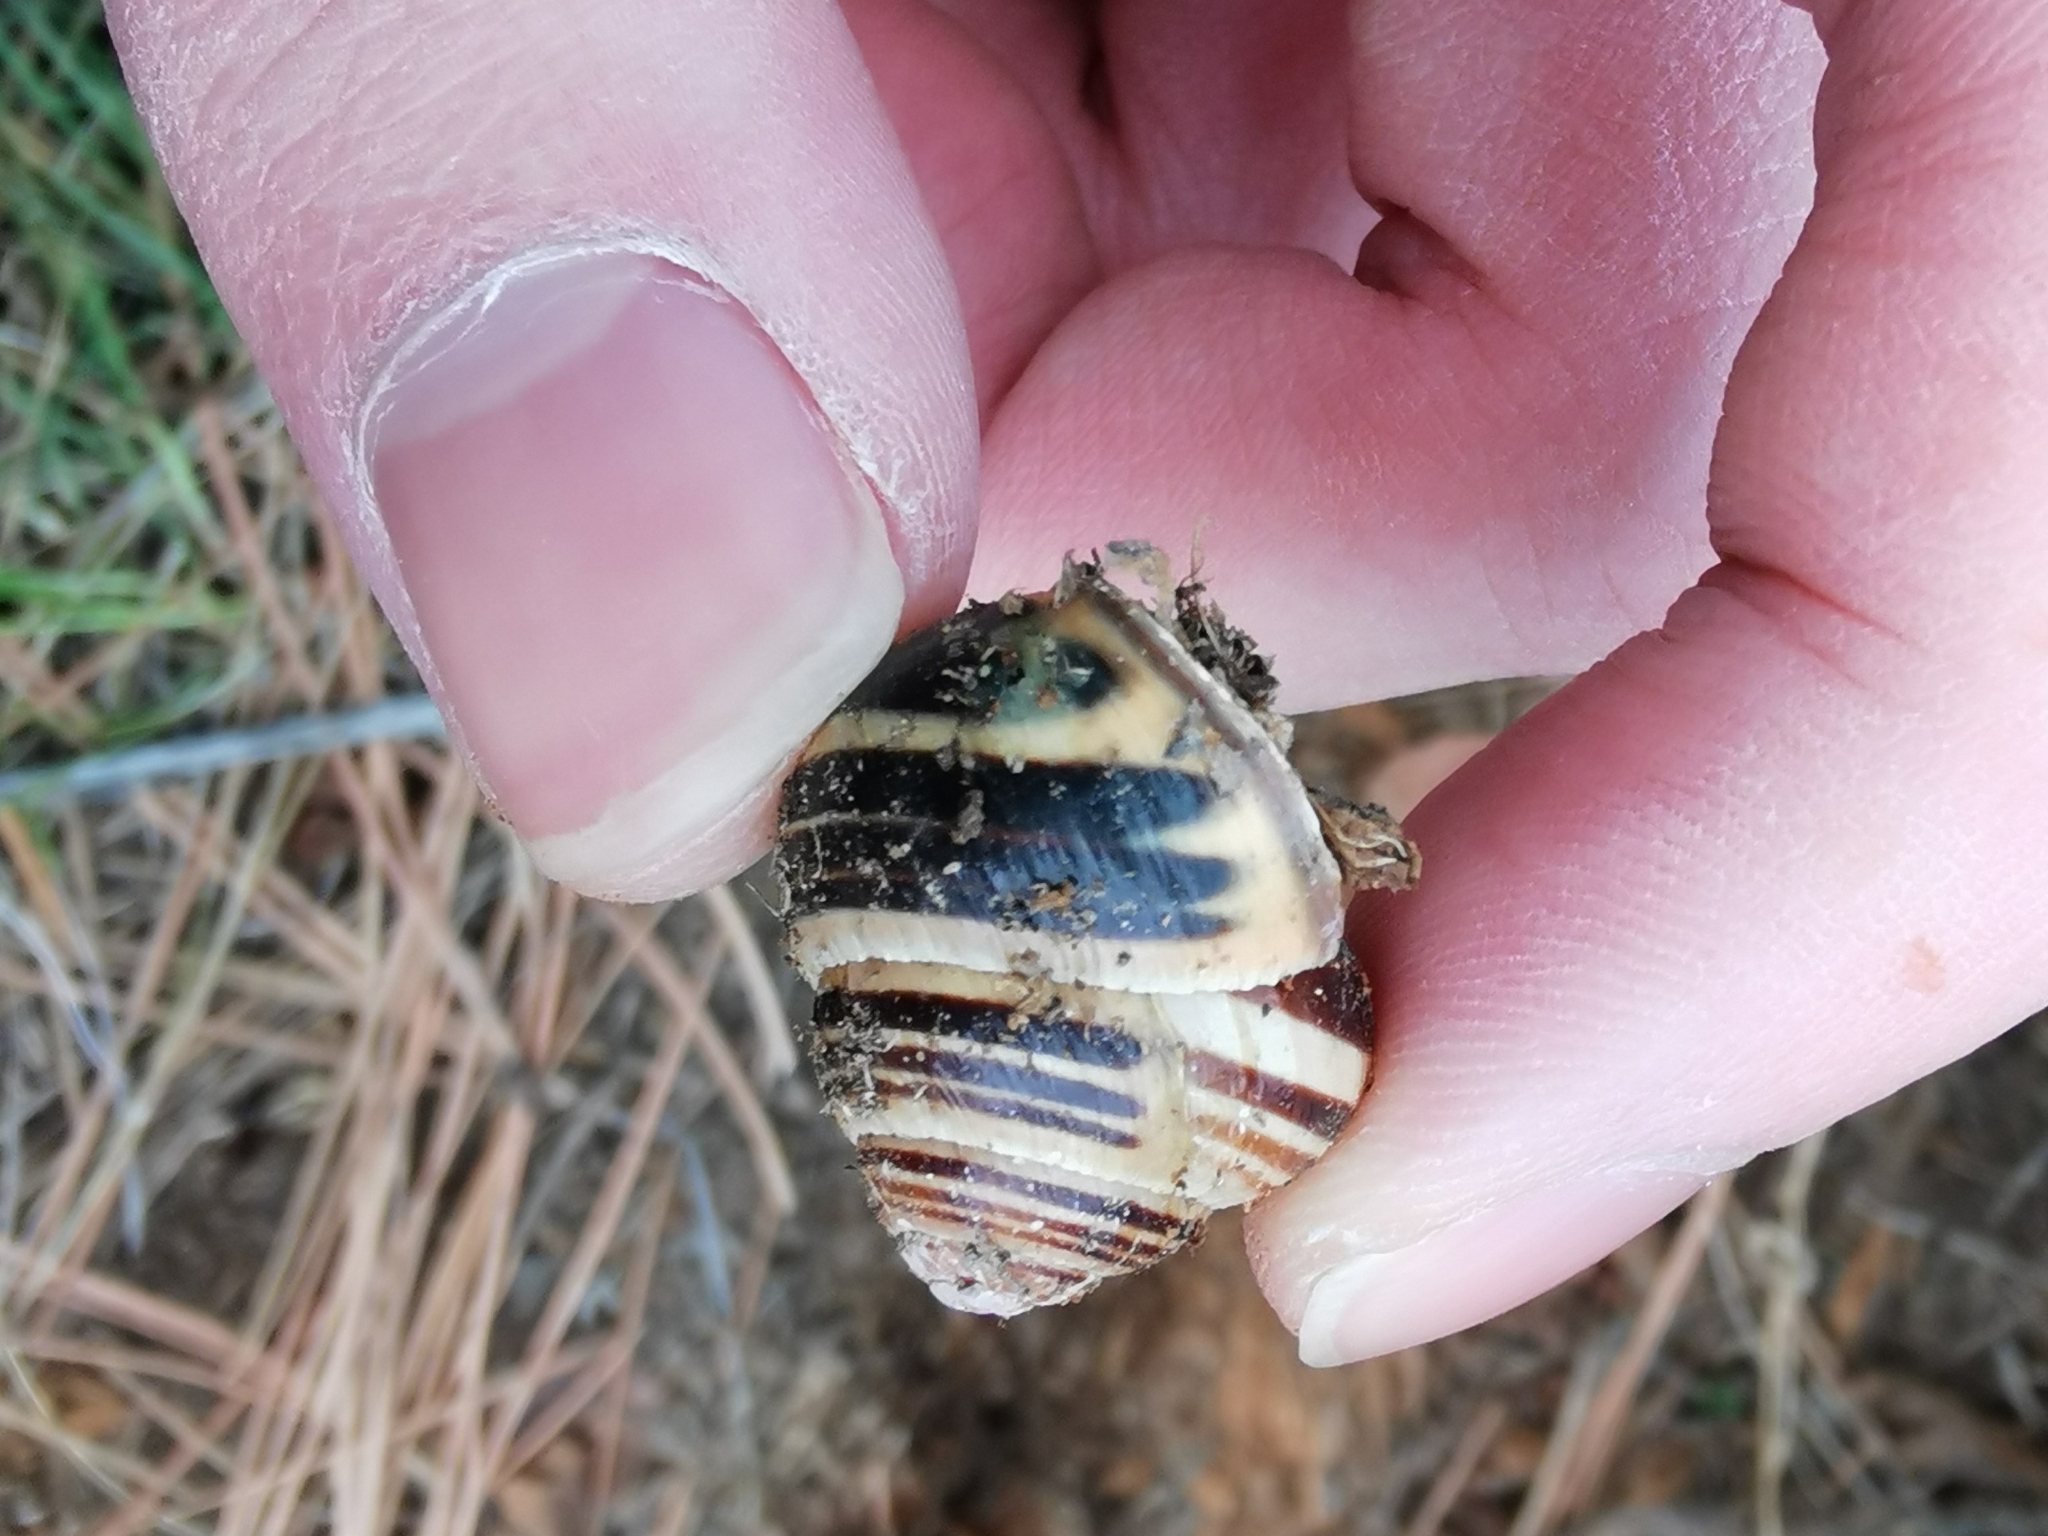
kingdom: Animalia
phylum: Mollusca
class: Gastropoda
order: Stylommatophora
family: Helicidae
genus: Cepaea
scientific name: Cepaea nemoralis
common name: Grovesnail
